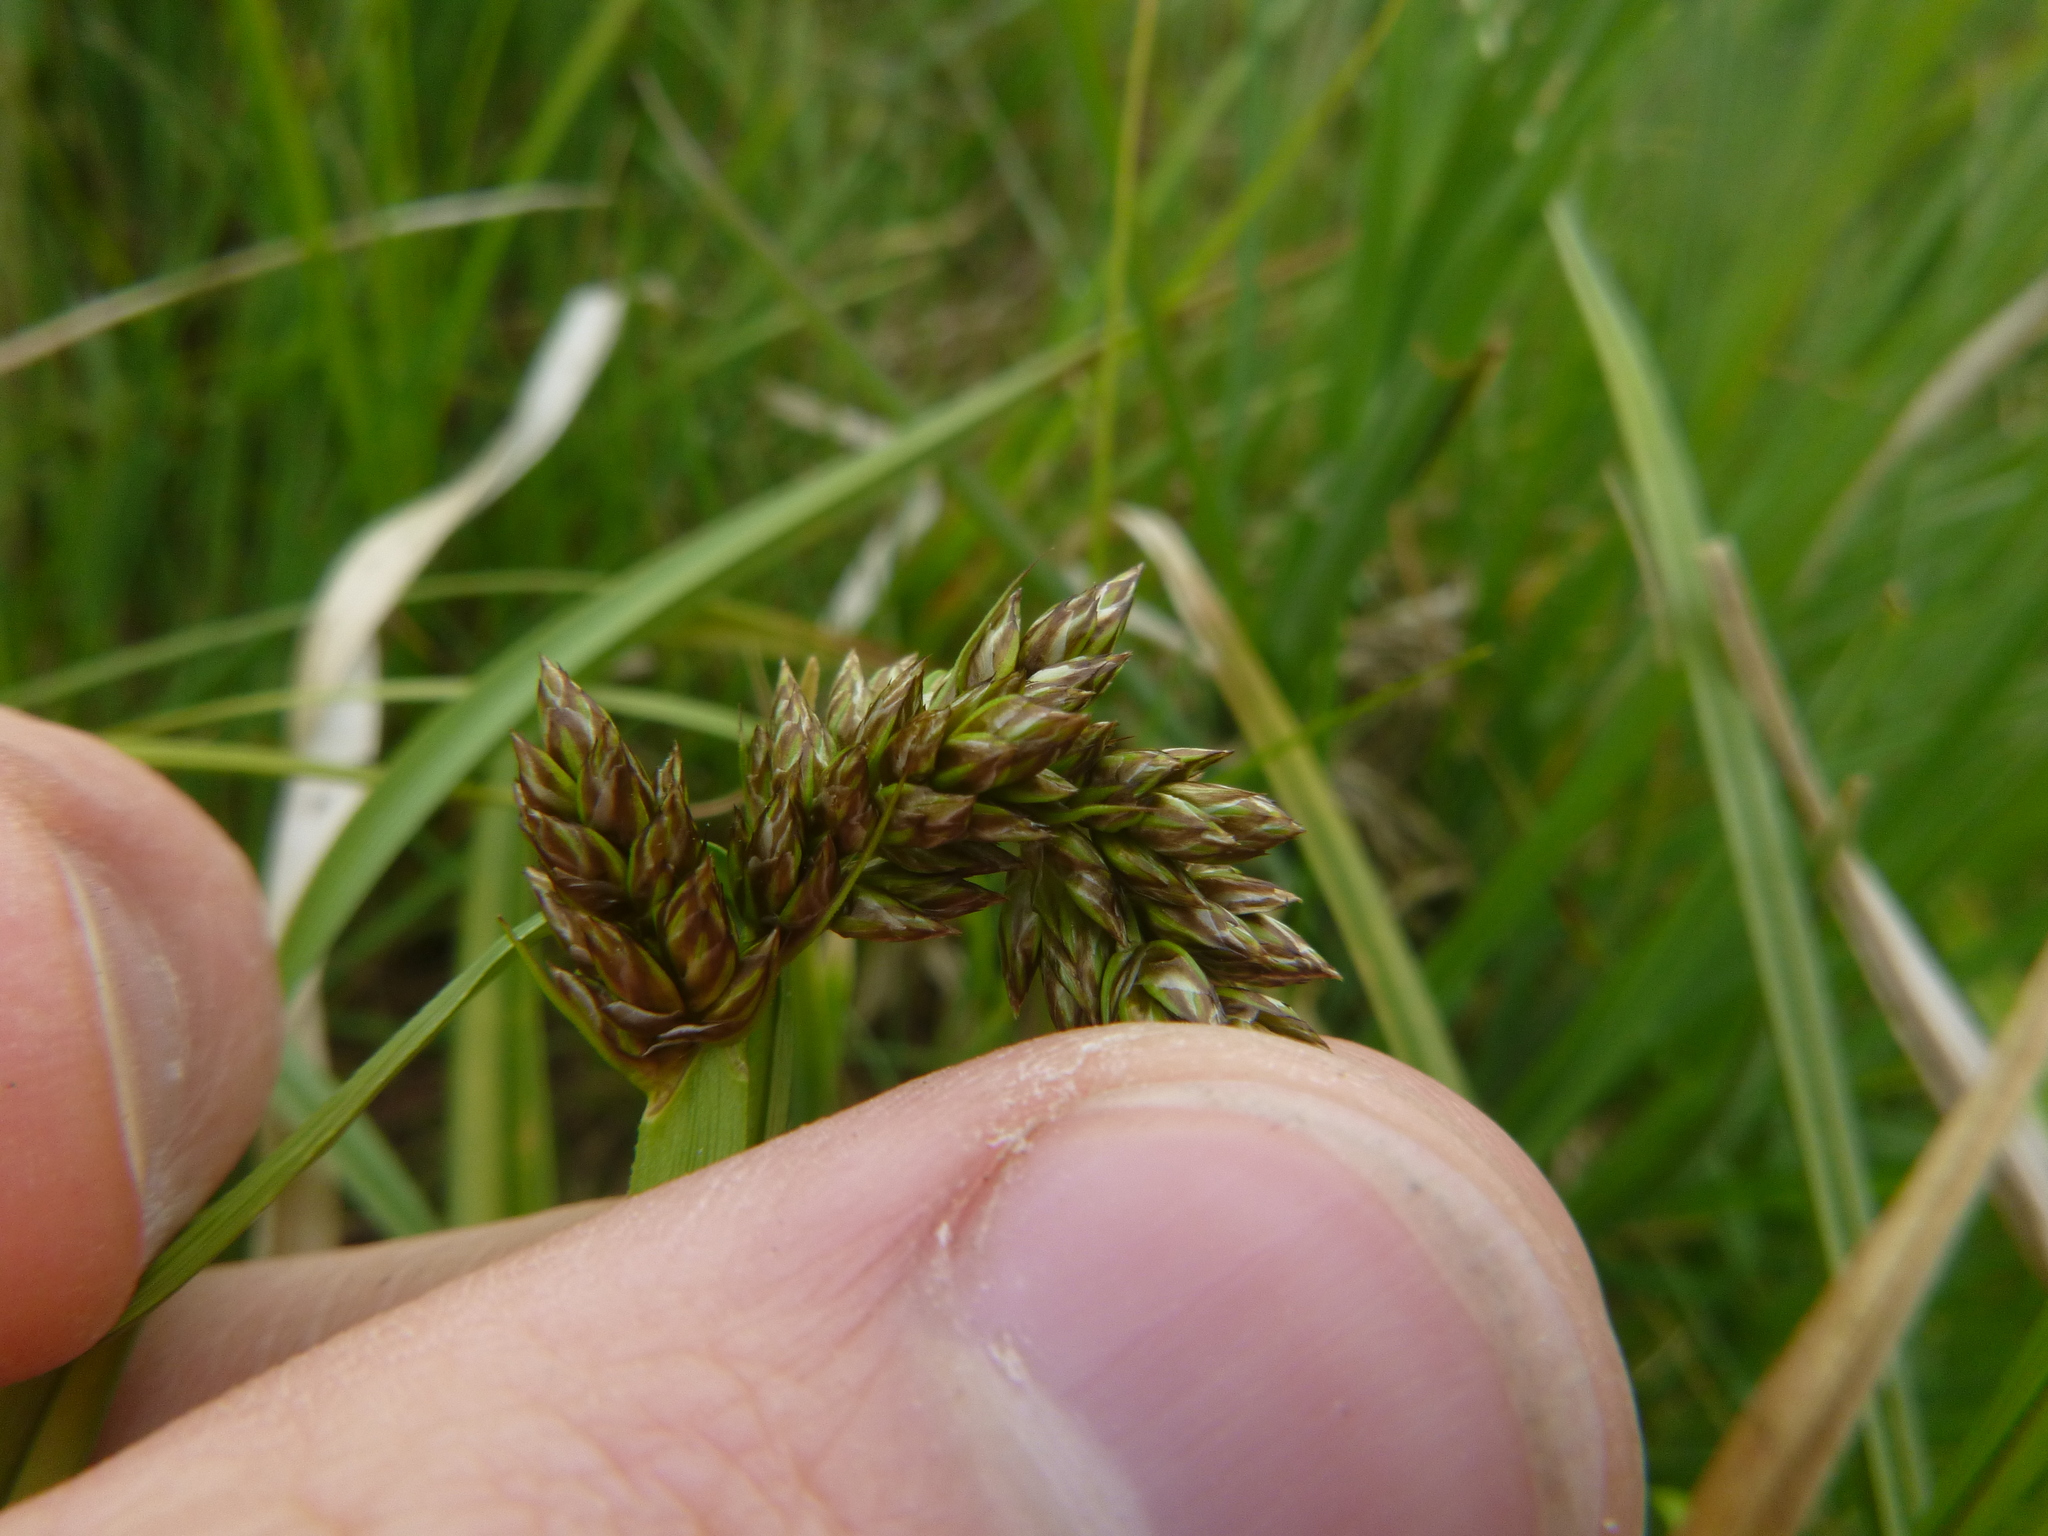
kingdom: Plantae
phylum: Tracheophyta
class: Liliopsida
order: Poales
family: Cyperaceae
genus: Carex
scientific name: Carex vulpina
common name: True fox-sedge
